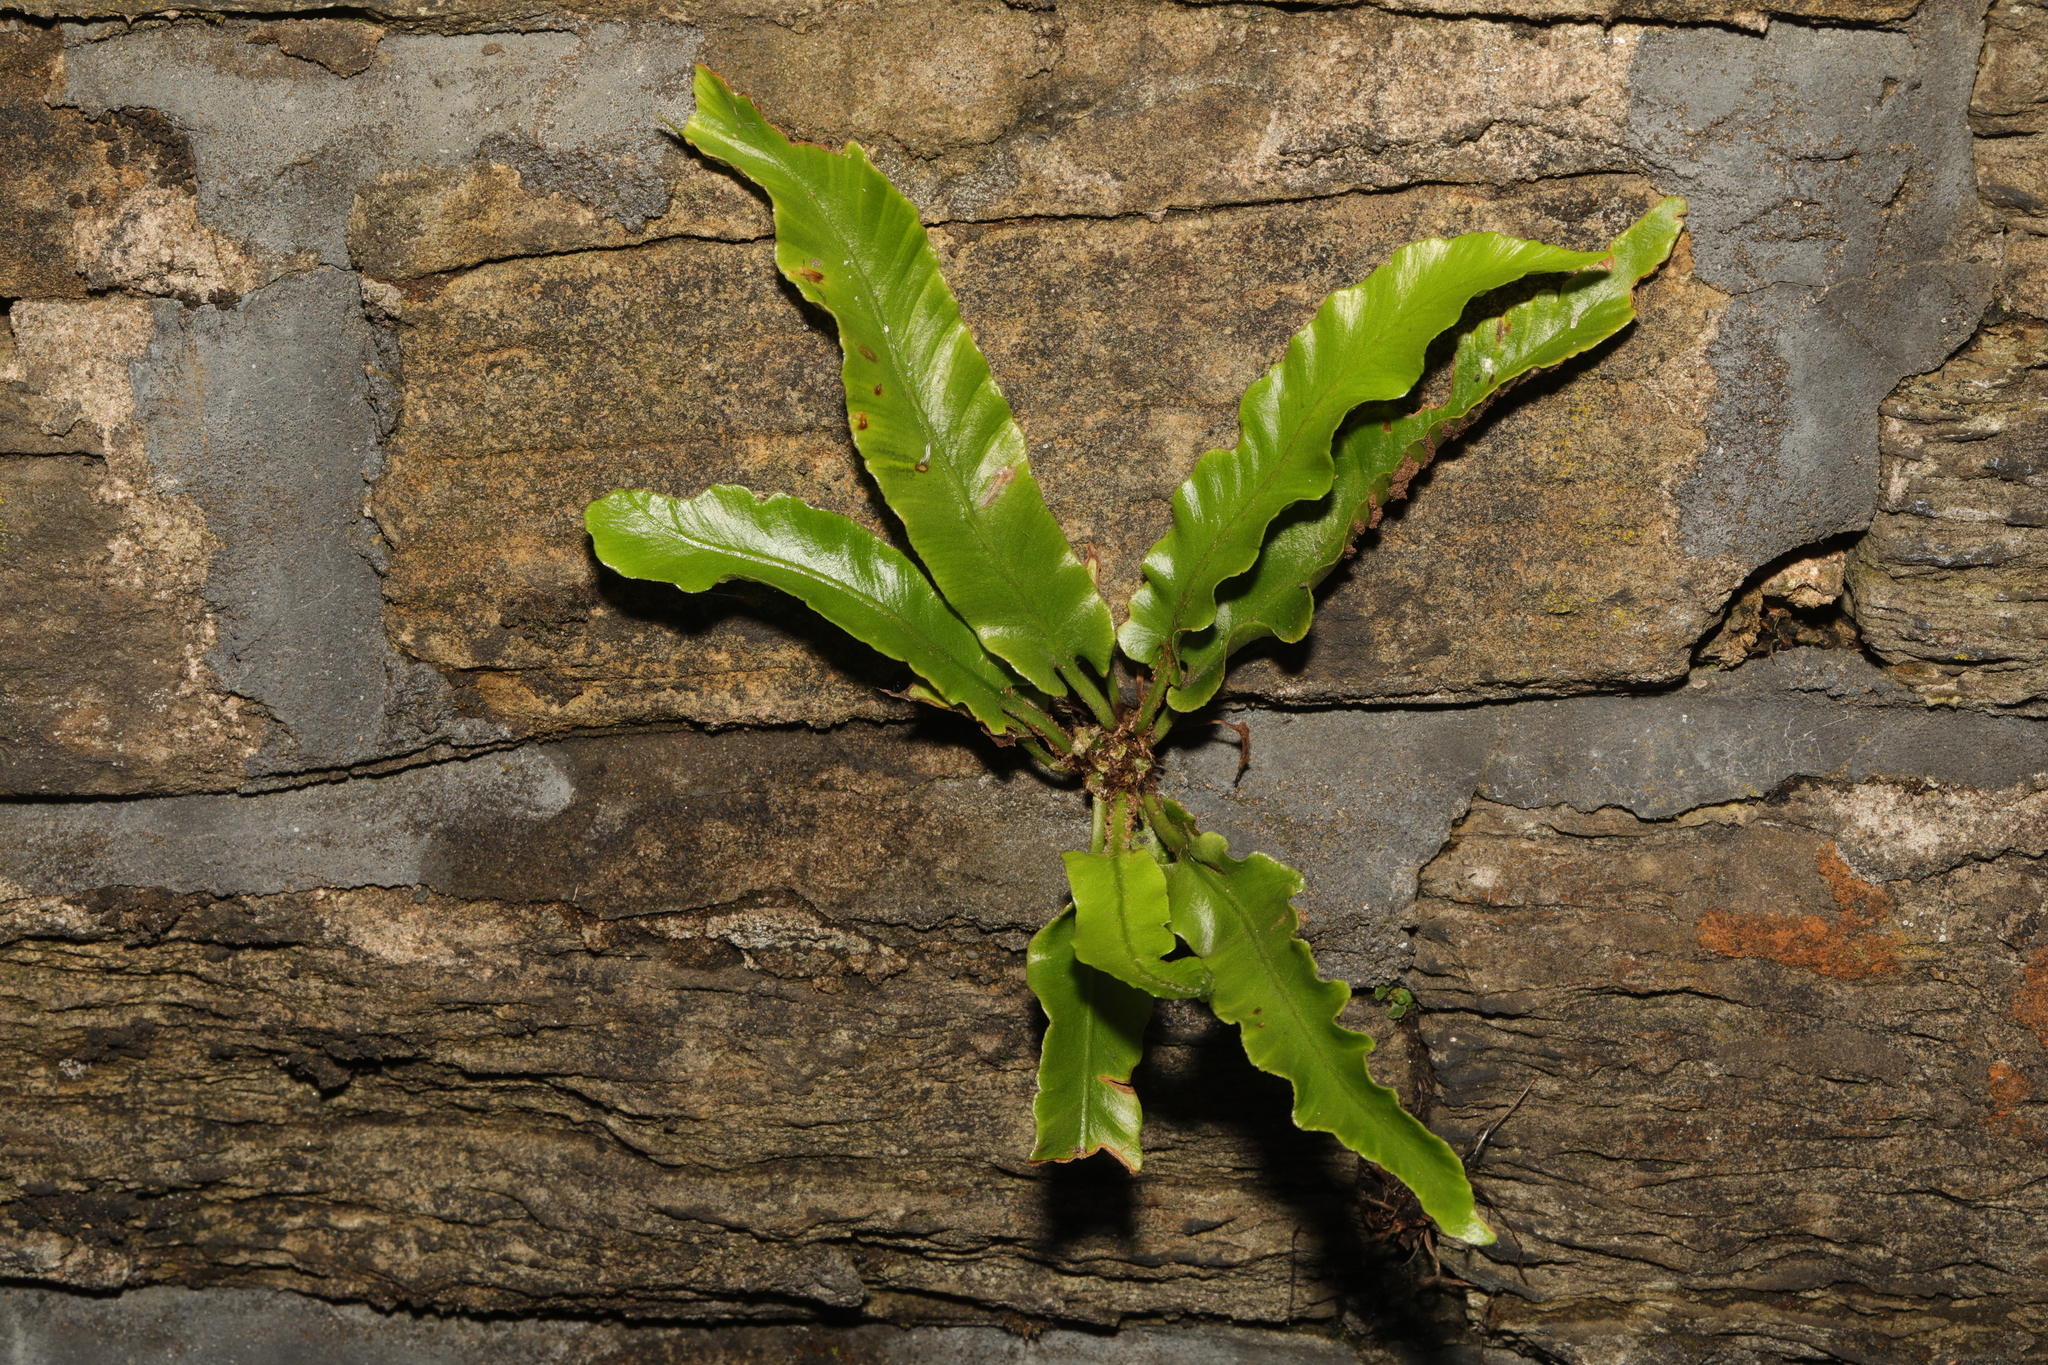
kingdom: Plantae
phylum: Tracheophyta
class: Polypodiopsida
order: Polypodiales
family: Aspleniaceae
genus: Asplenium
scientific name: Asplenium scolopendrium
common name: Hart's-tongue fern
